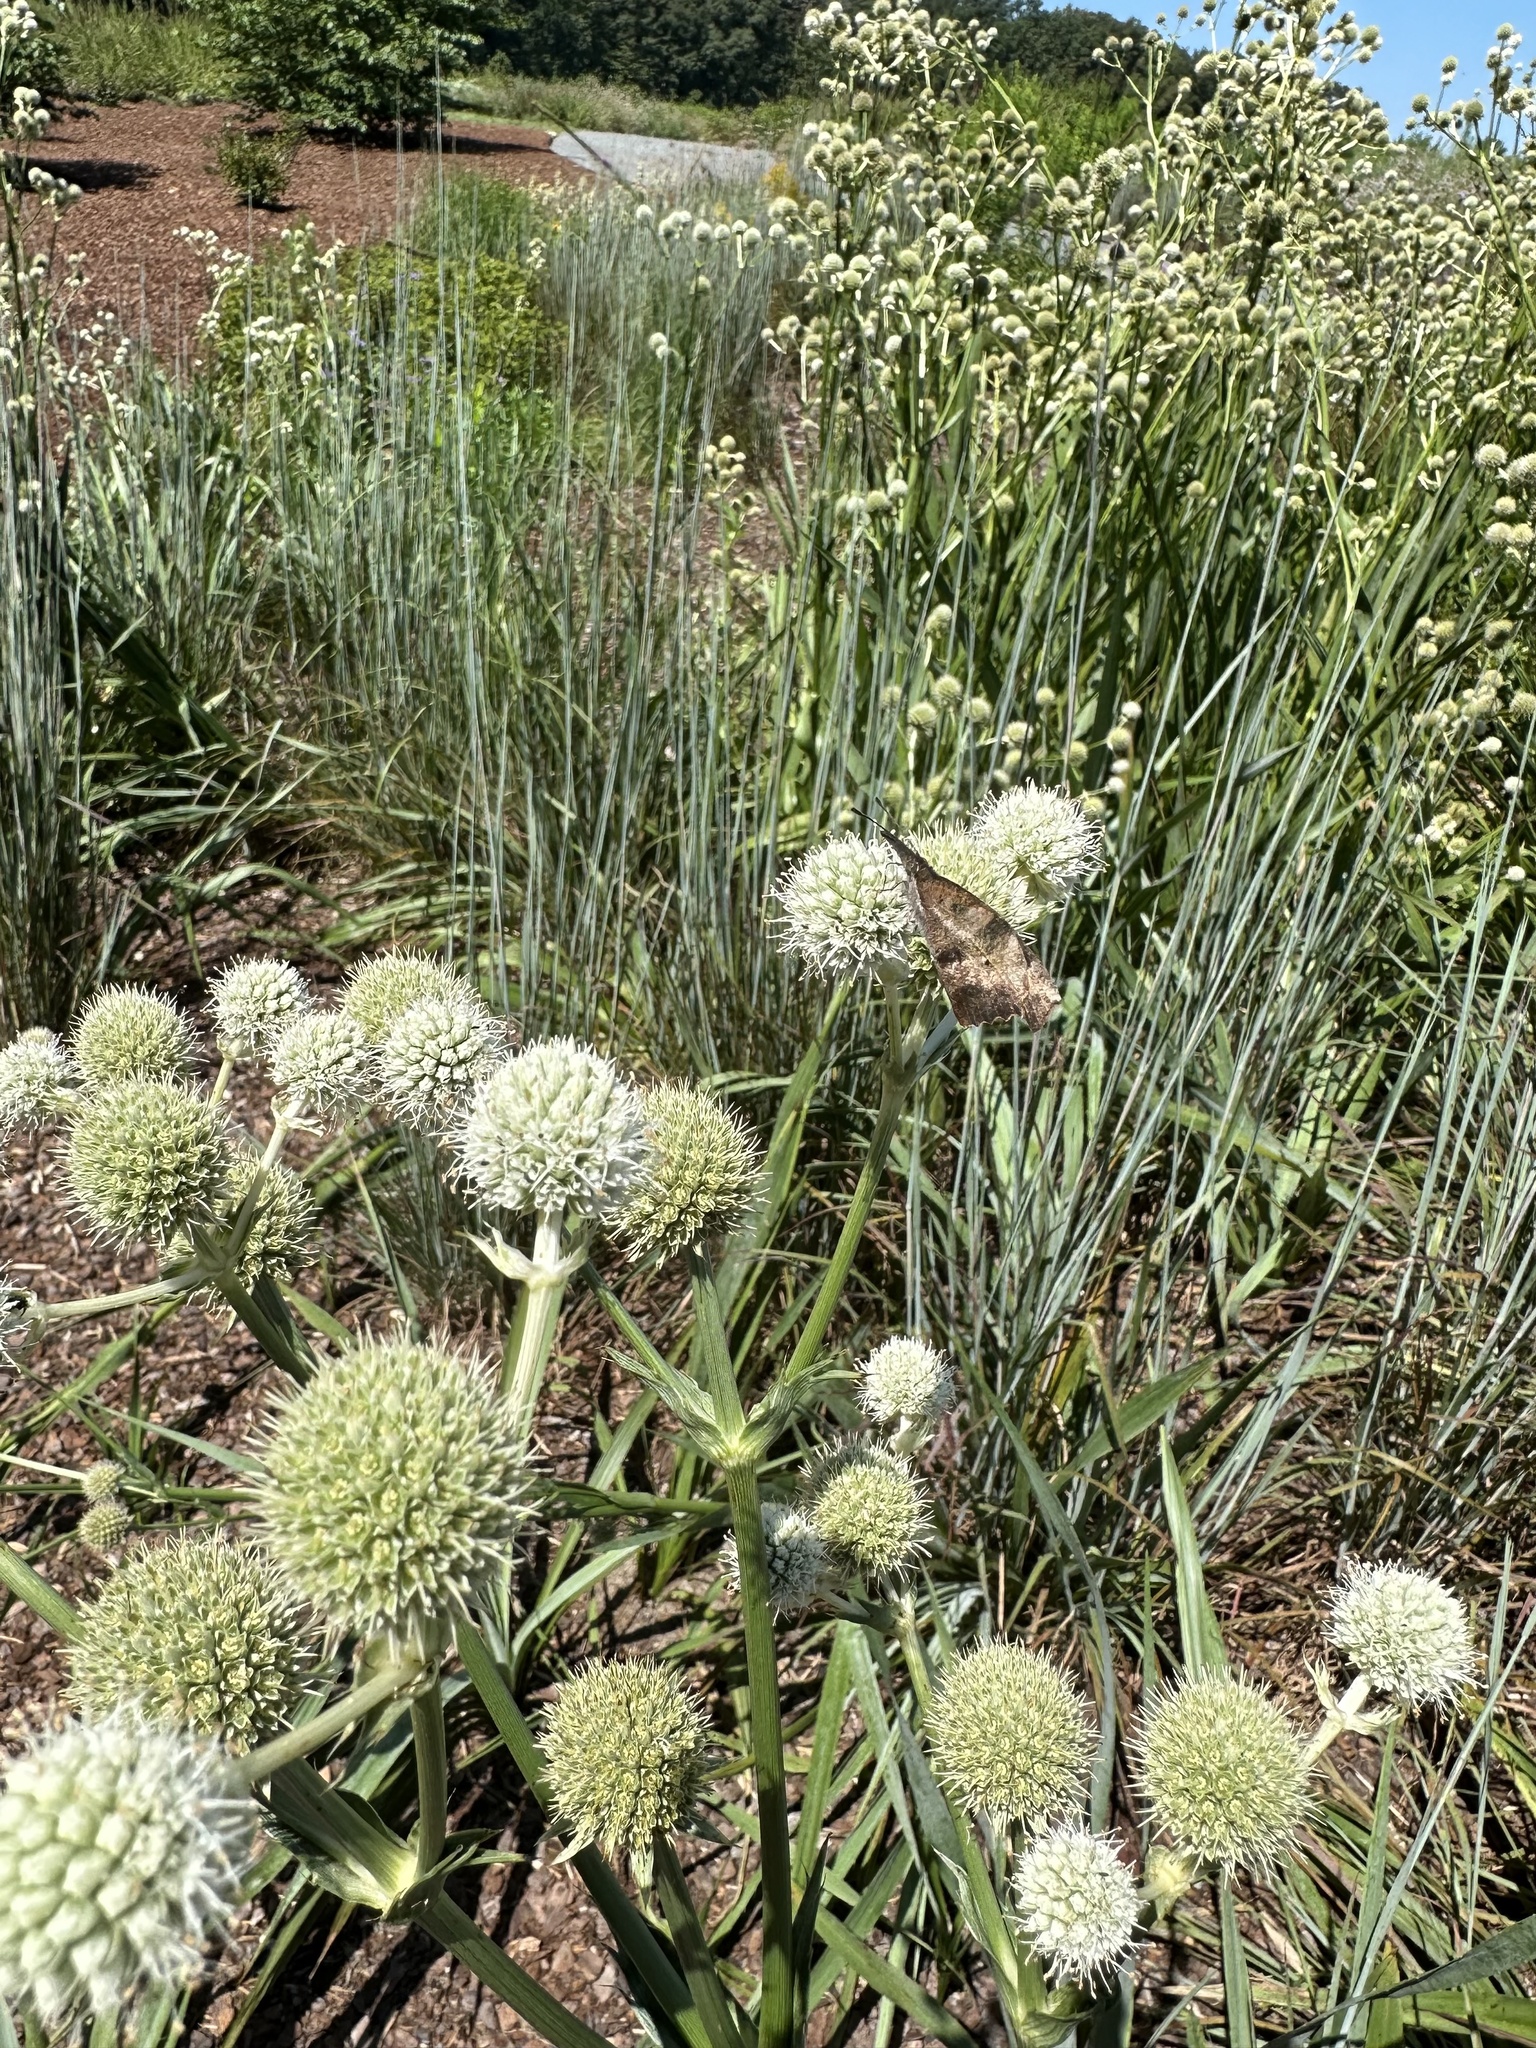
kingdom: Plantae
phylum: Tracheophyta
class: Magnoliopsida
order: Apiales
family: Apiaceae
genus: Eryngium
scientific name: Eryngium yuccifolium
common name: Button eryngo
